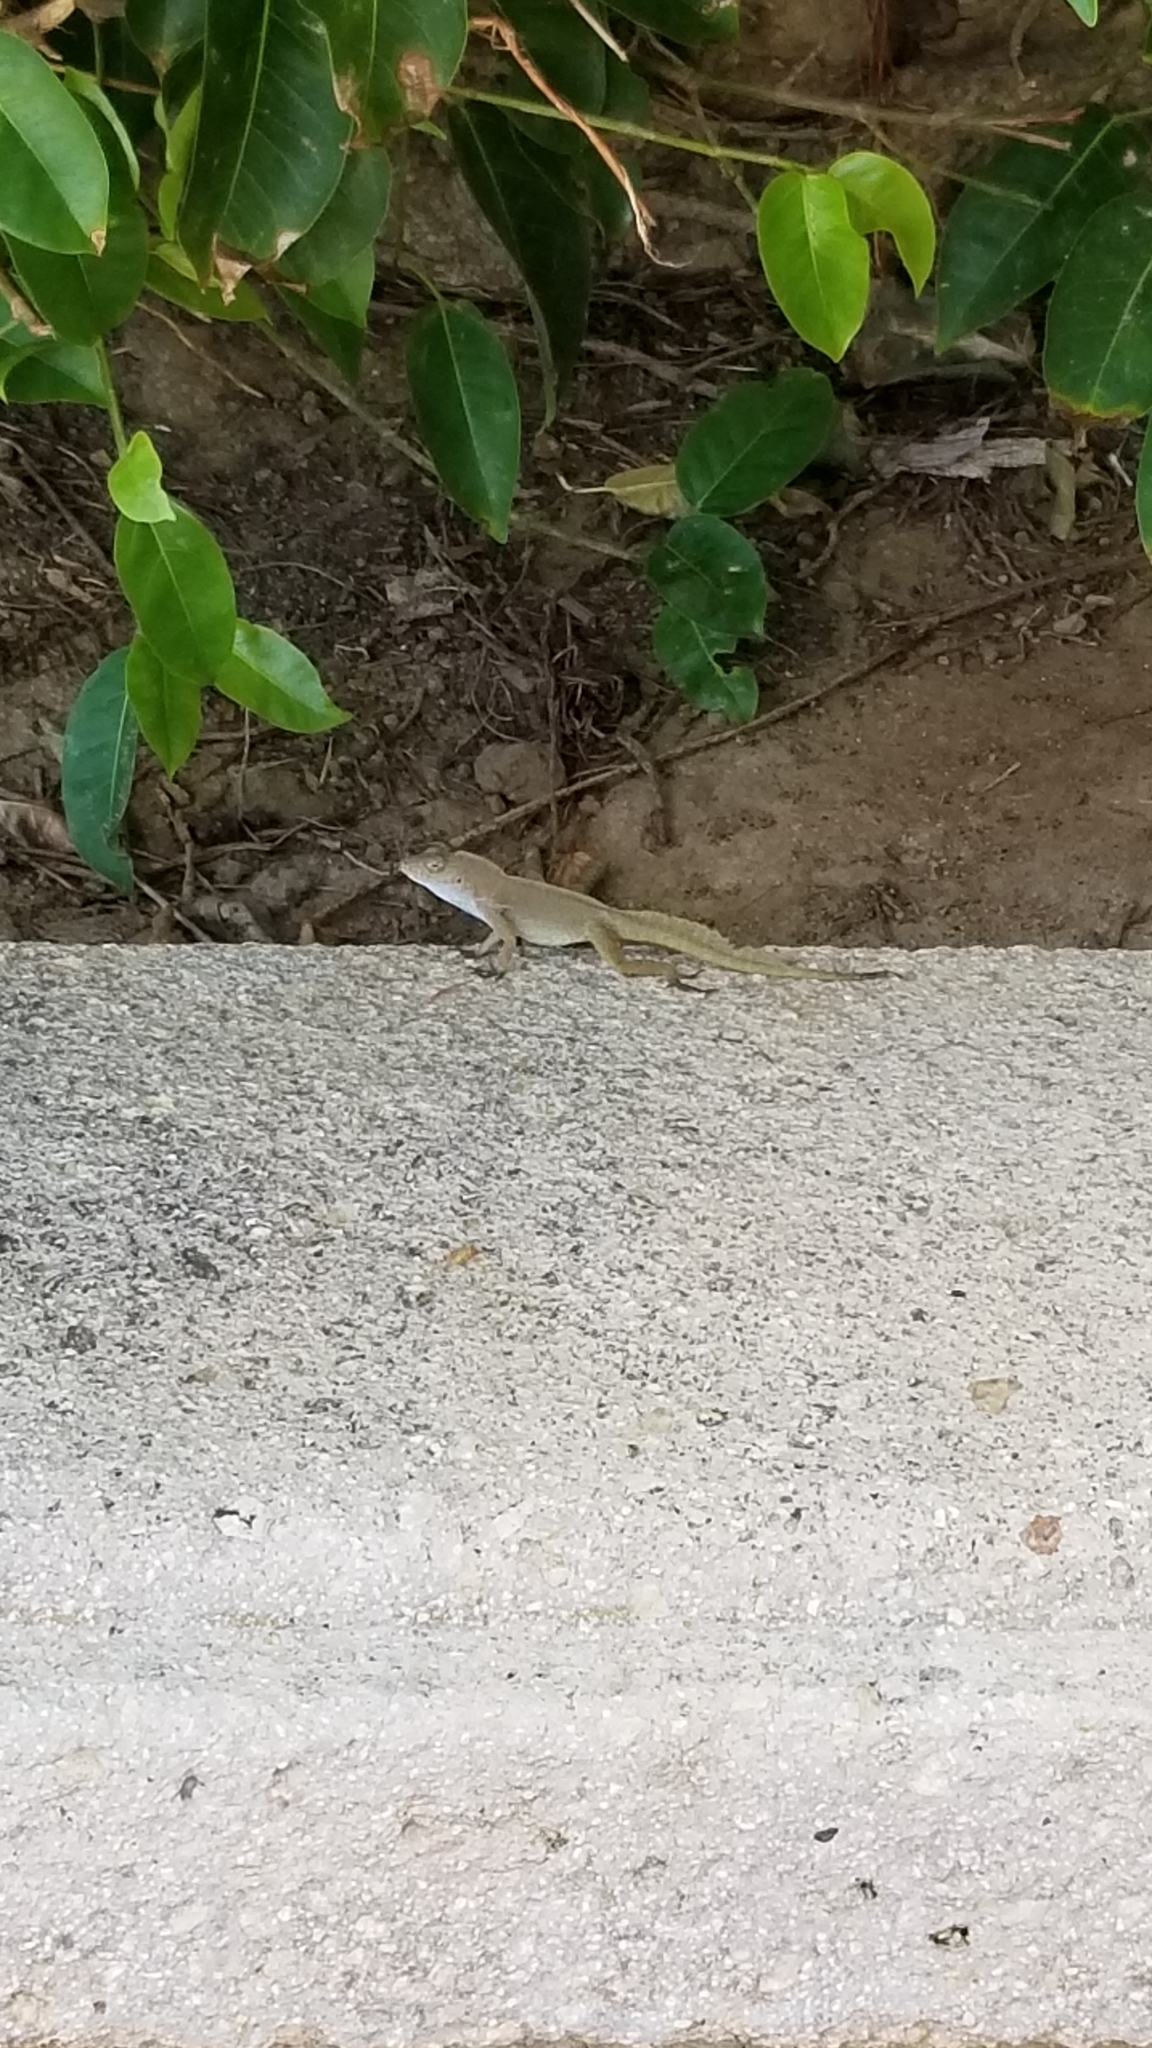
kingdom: Animalia
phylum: Chordata
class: Squamata
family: Dactyloidae
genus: Anolis
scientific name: Anolis cristatellus
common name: Crested anole
